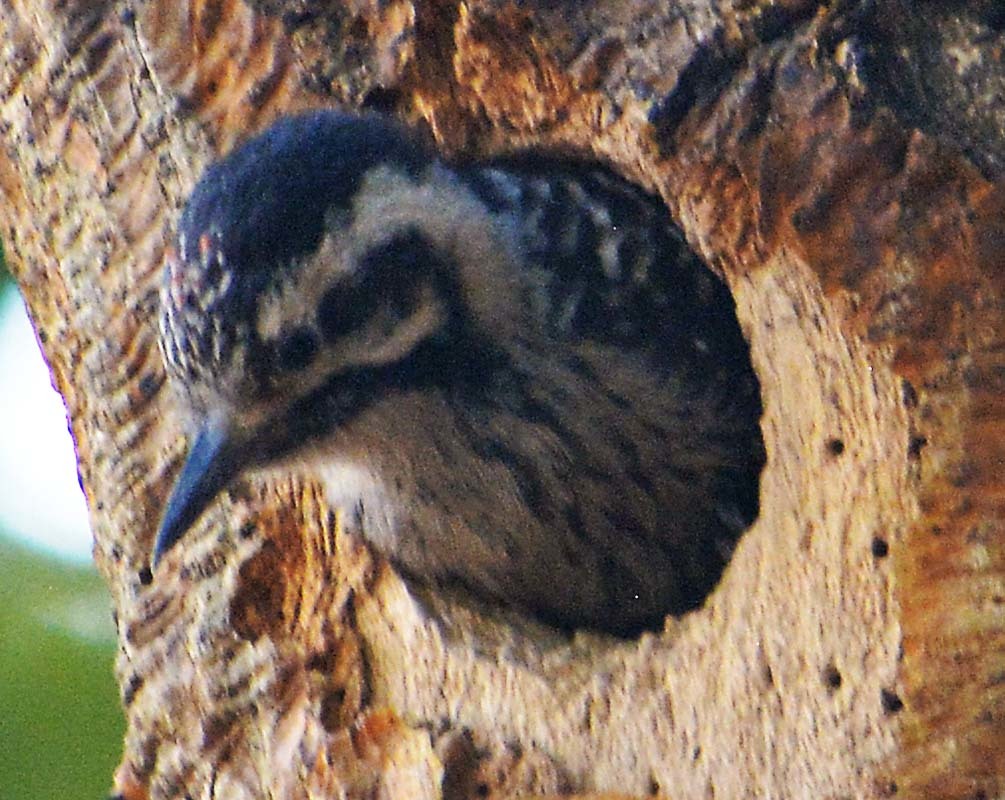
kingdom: Animalia
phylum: Chordata
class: Aves
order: Piciformes
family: Picidae
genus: Dryobates
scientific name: Dryobates scalaris
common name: Ladder-backed woodpecker
